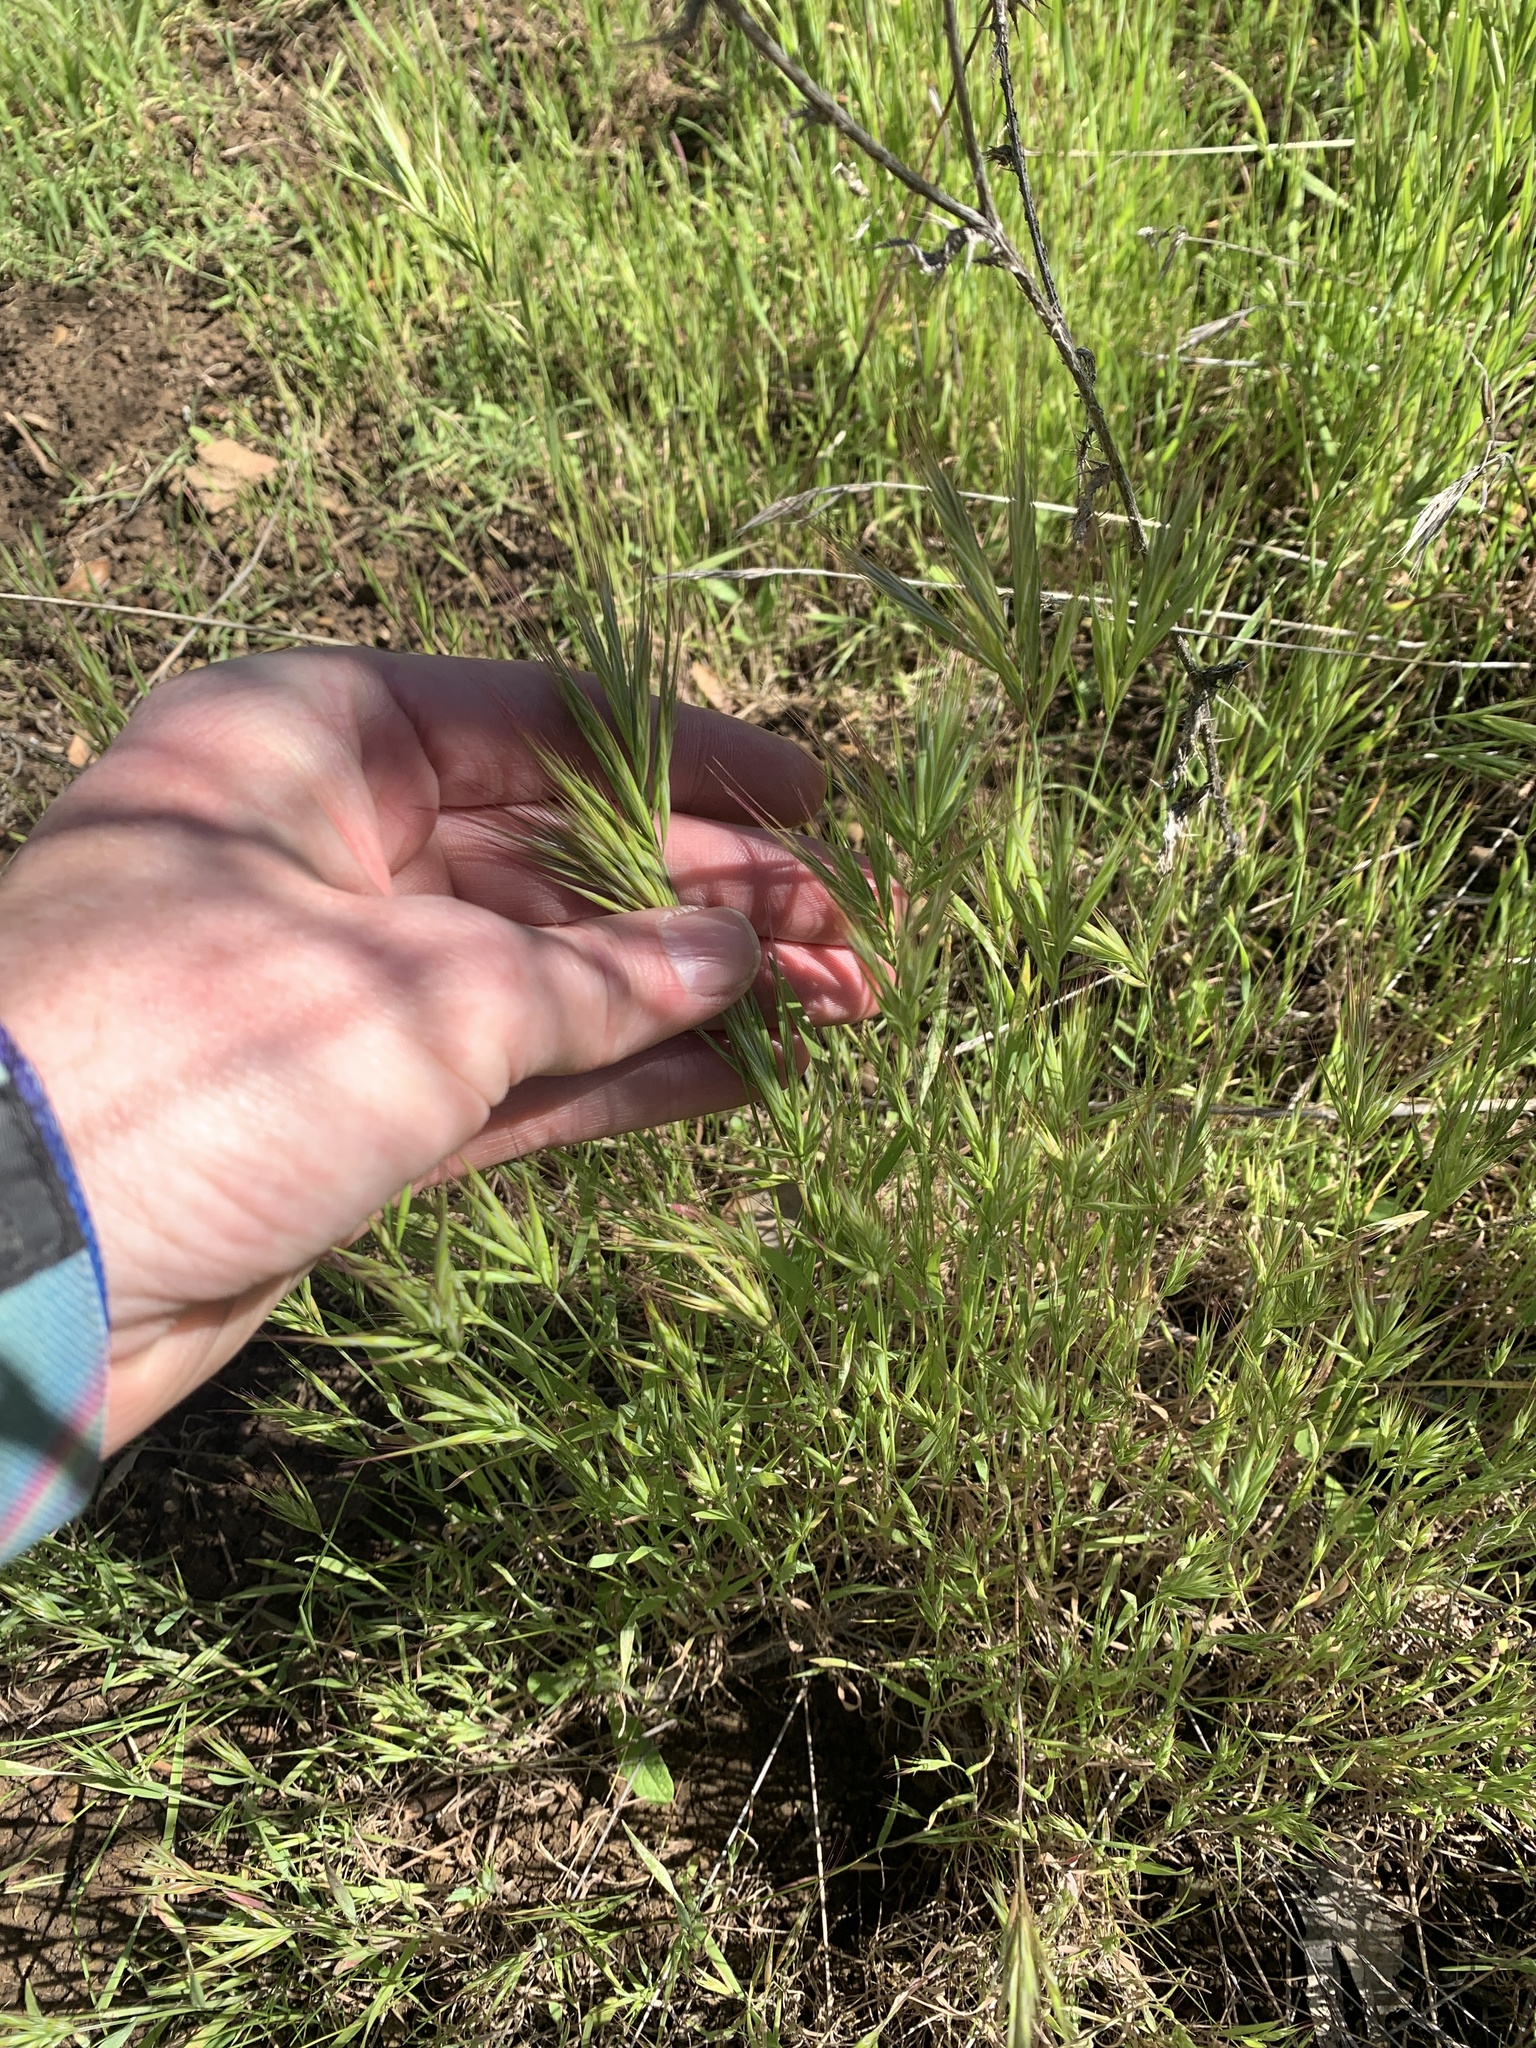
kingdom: Plantae
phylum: Tracheophyta
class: Liliopsida
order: Poales
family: Poaceae
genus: Bromus
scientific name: Bromus madritensis
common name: Compact brome
